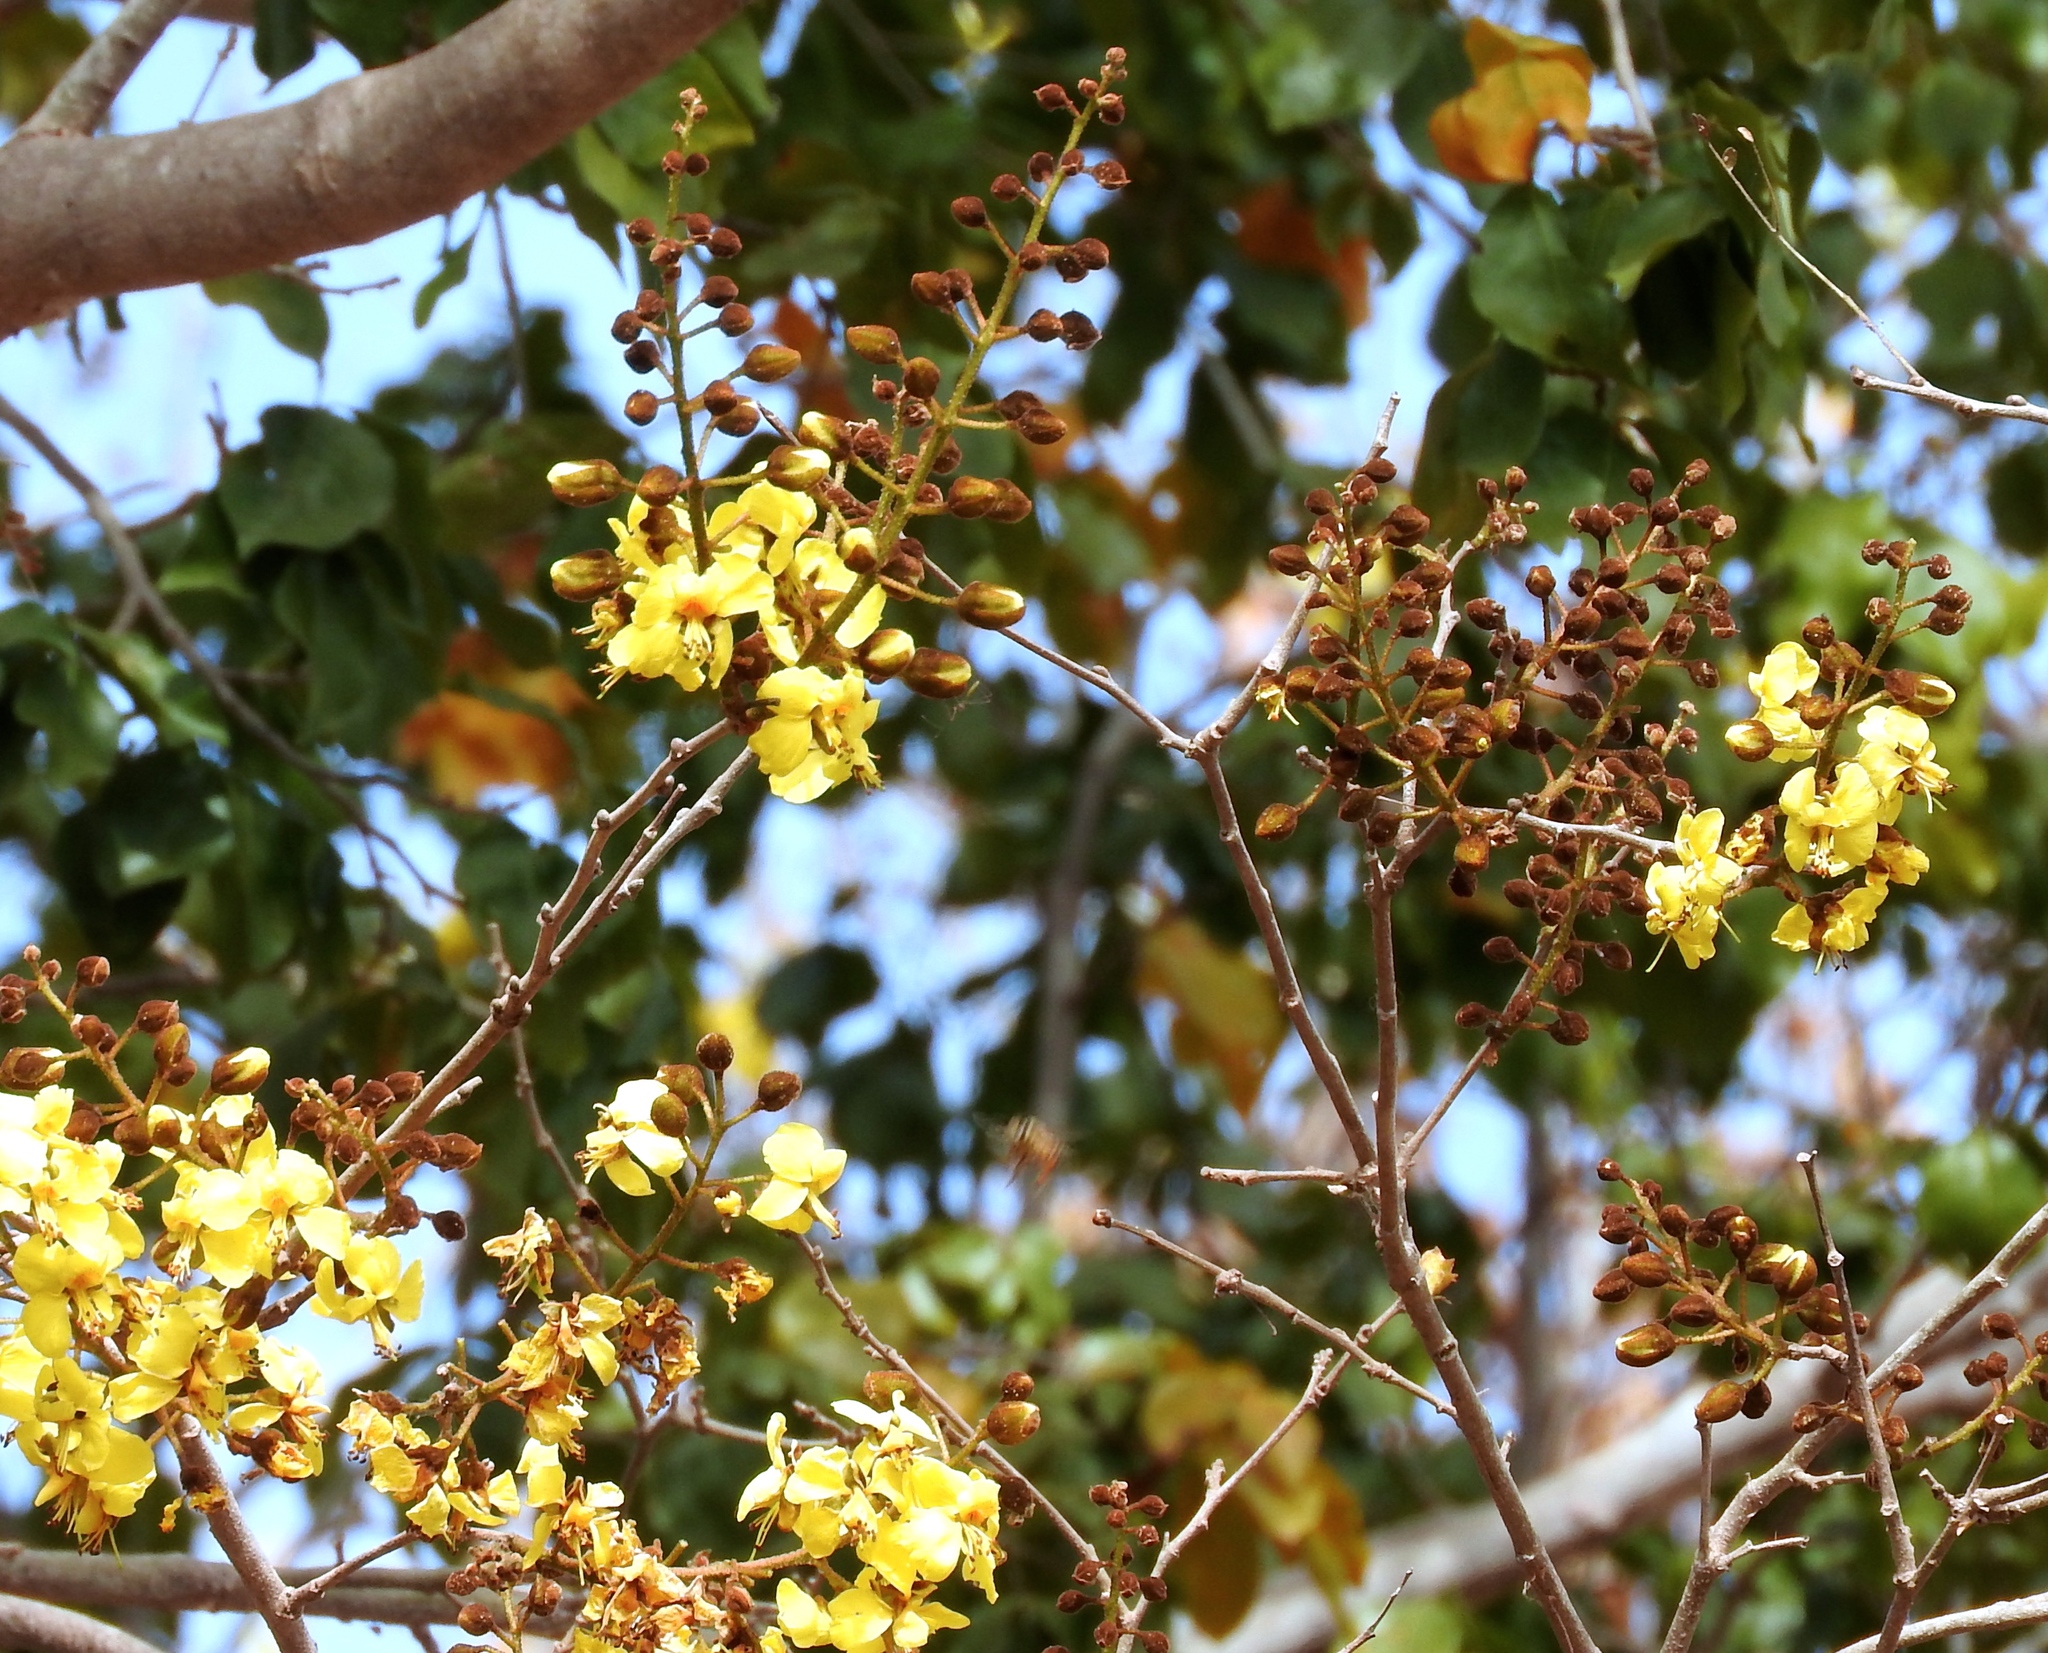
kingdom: Plantae
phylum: Tracheophyta
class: Magnoliopsida
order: Fabales
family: Fabaceae
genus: Cenostigma
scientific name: Cenostigma eriostachys
